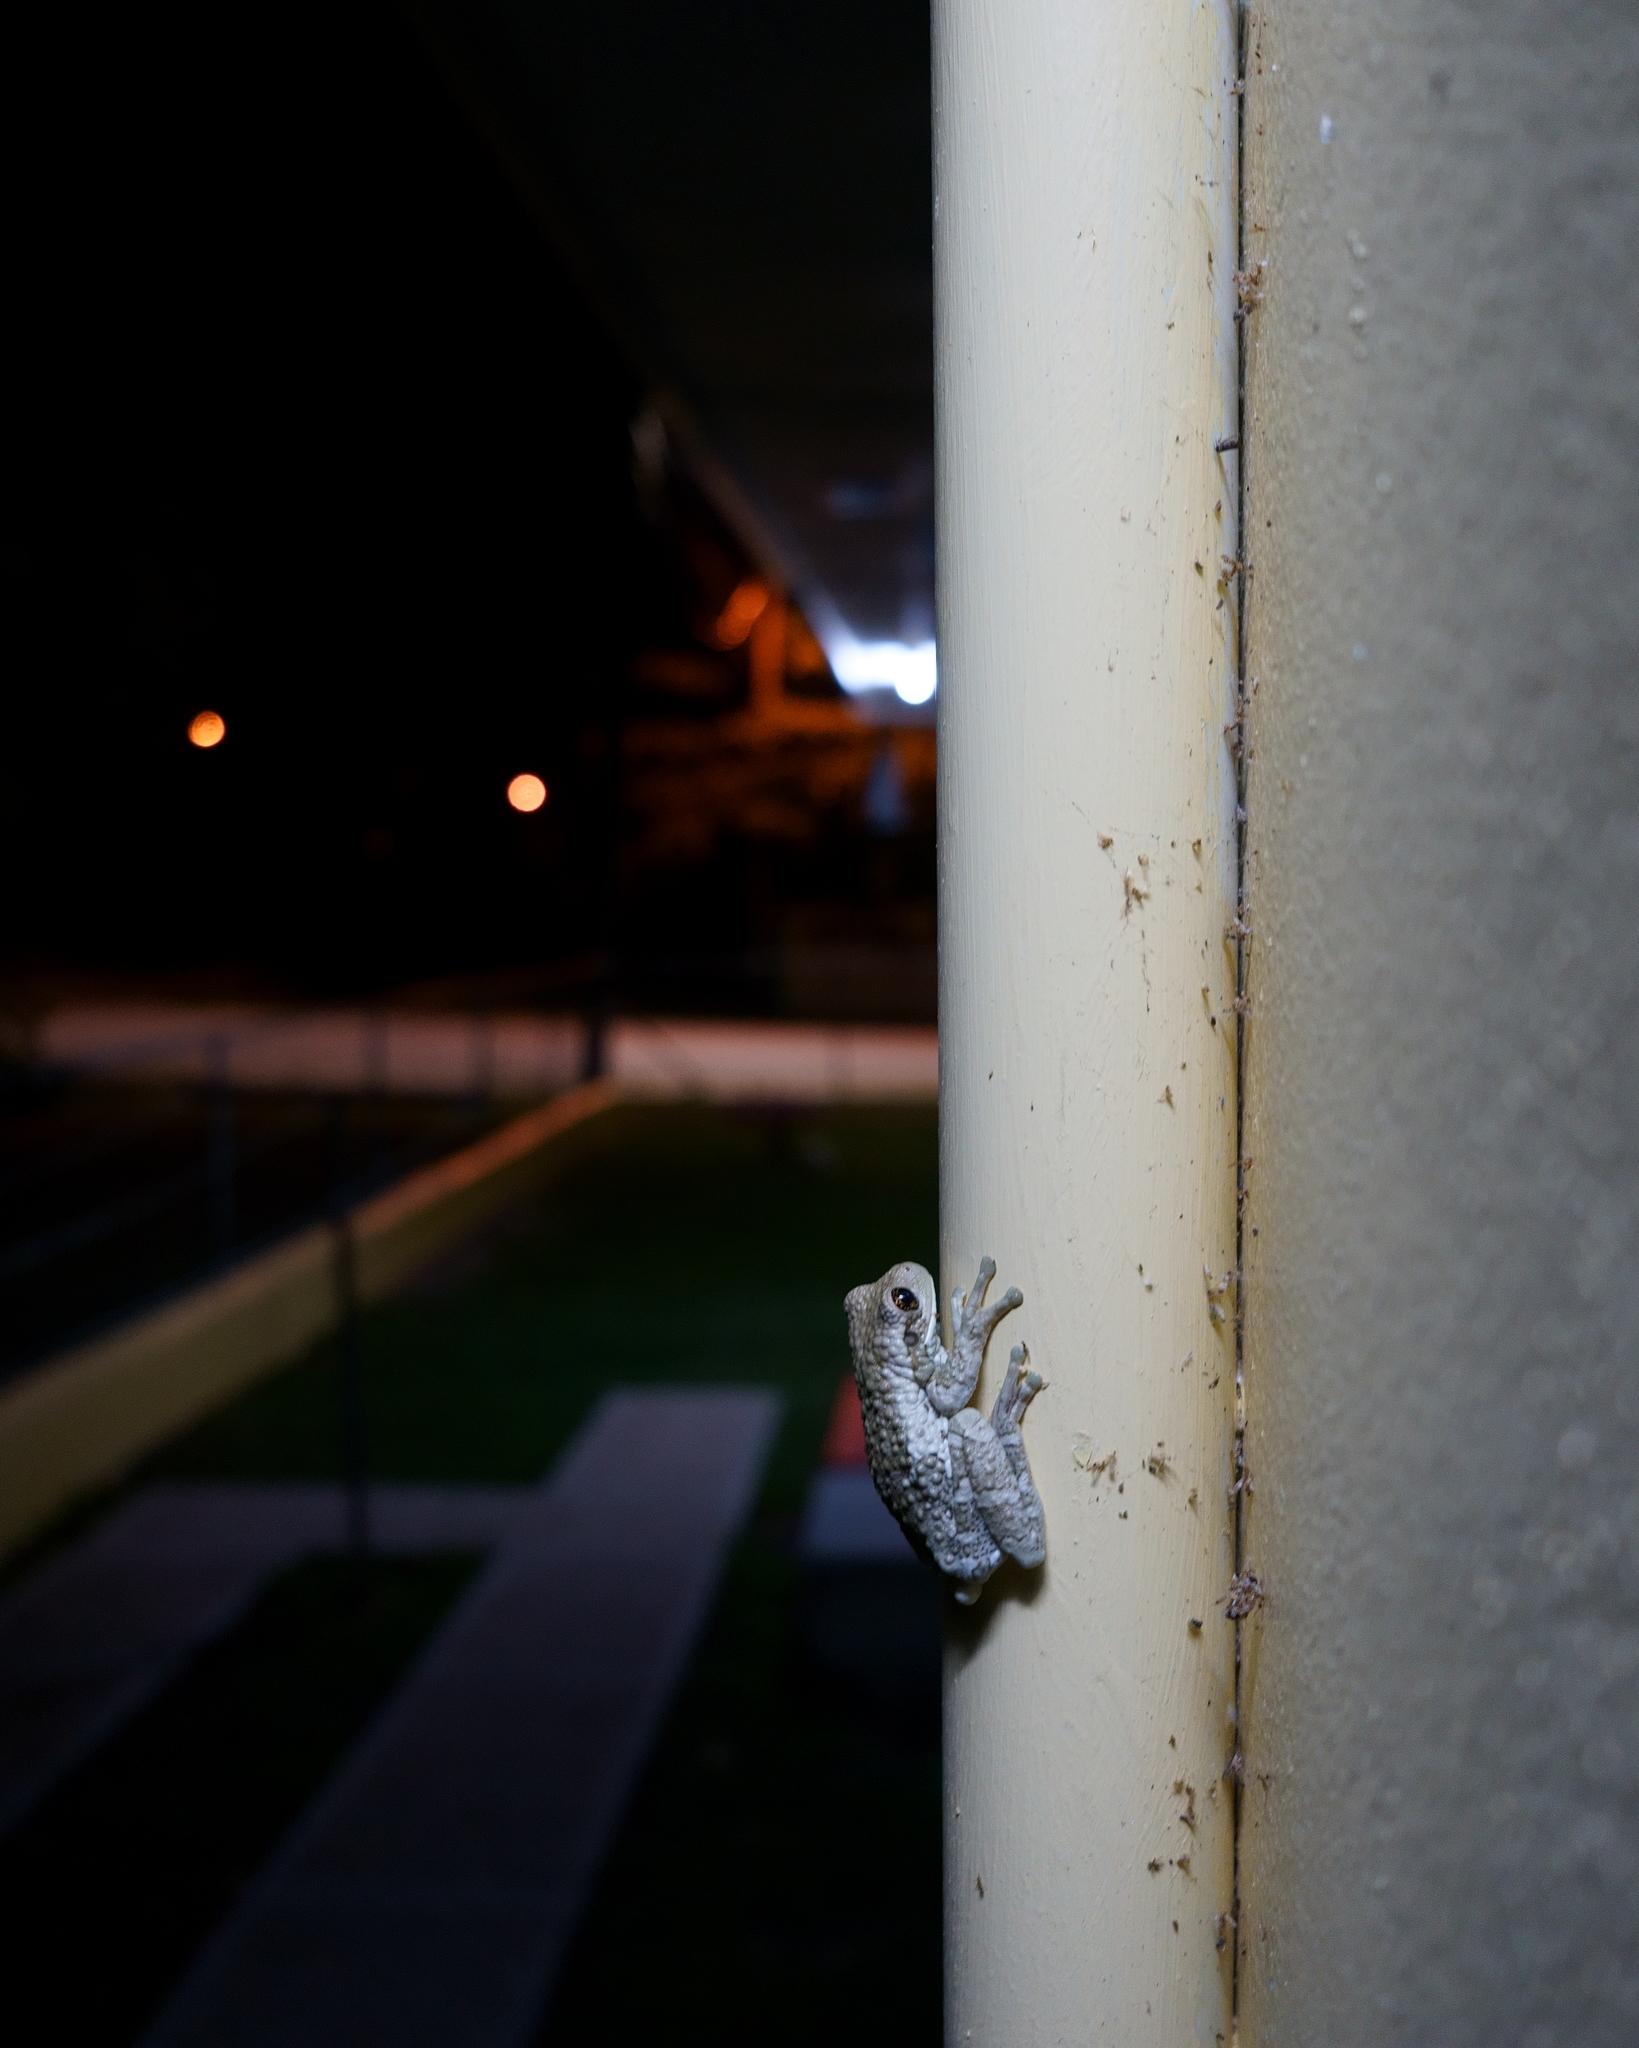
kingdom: Animalia
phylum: Chordata
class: Amphibia
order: Anura
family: Hylidae
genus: Trachycephalus
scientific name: Trachycephalus vermiculatus
